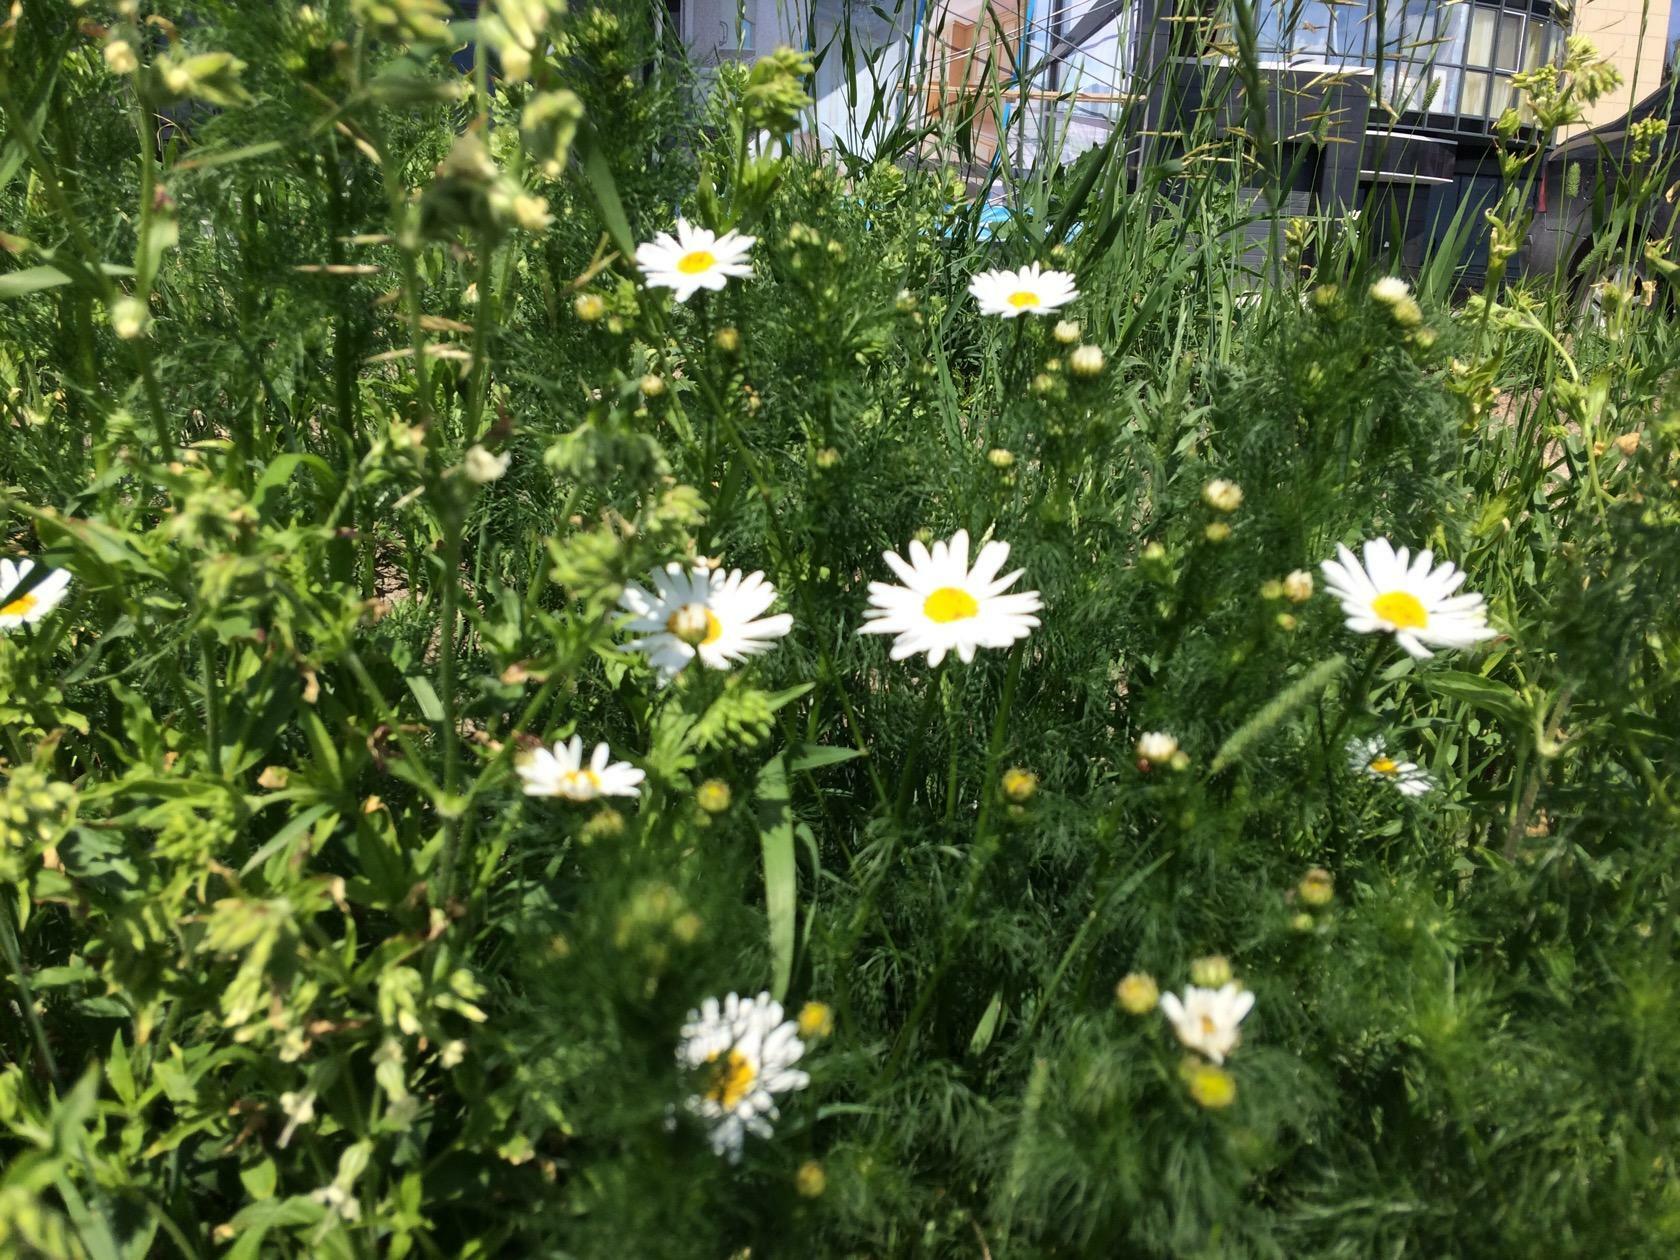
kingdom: Plantae
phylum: Tracheophyta
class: Magnoliopsida
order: Asterales
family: Asteraceae
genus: Tripleurospermum
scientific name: Tripleurospermum inodorum
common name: Scentless mayweed
